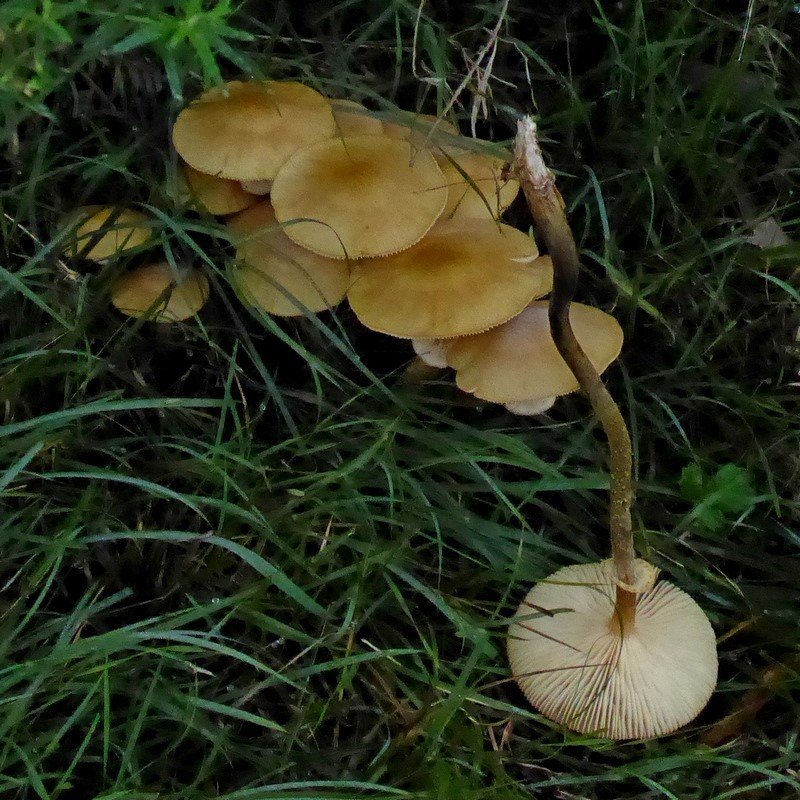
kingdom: Fungi
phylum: Basidiomycota
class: Agaricomycetes
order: Agaricales
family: Physalacriaceae
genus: Armillaria
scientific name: Armillaria luteobubalina
